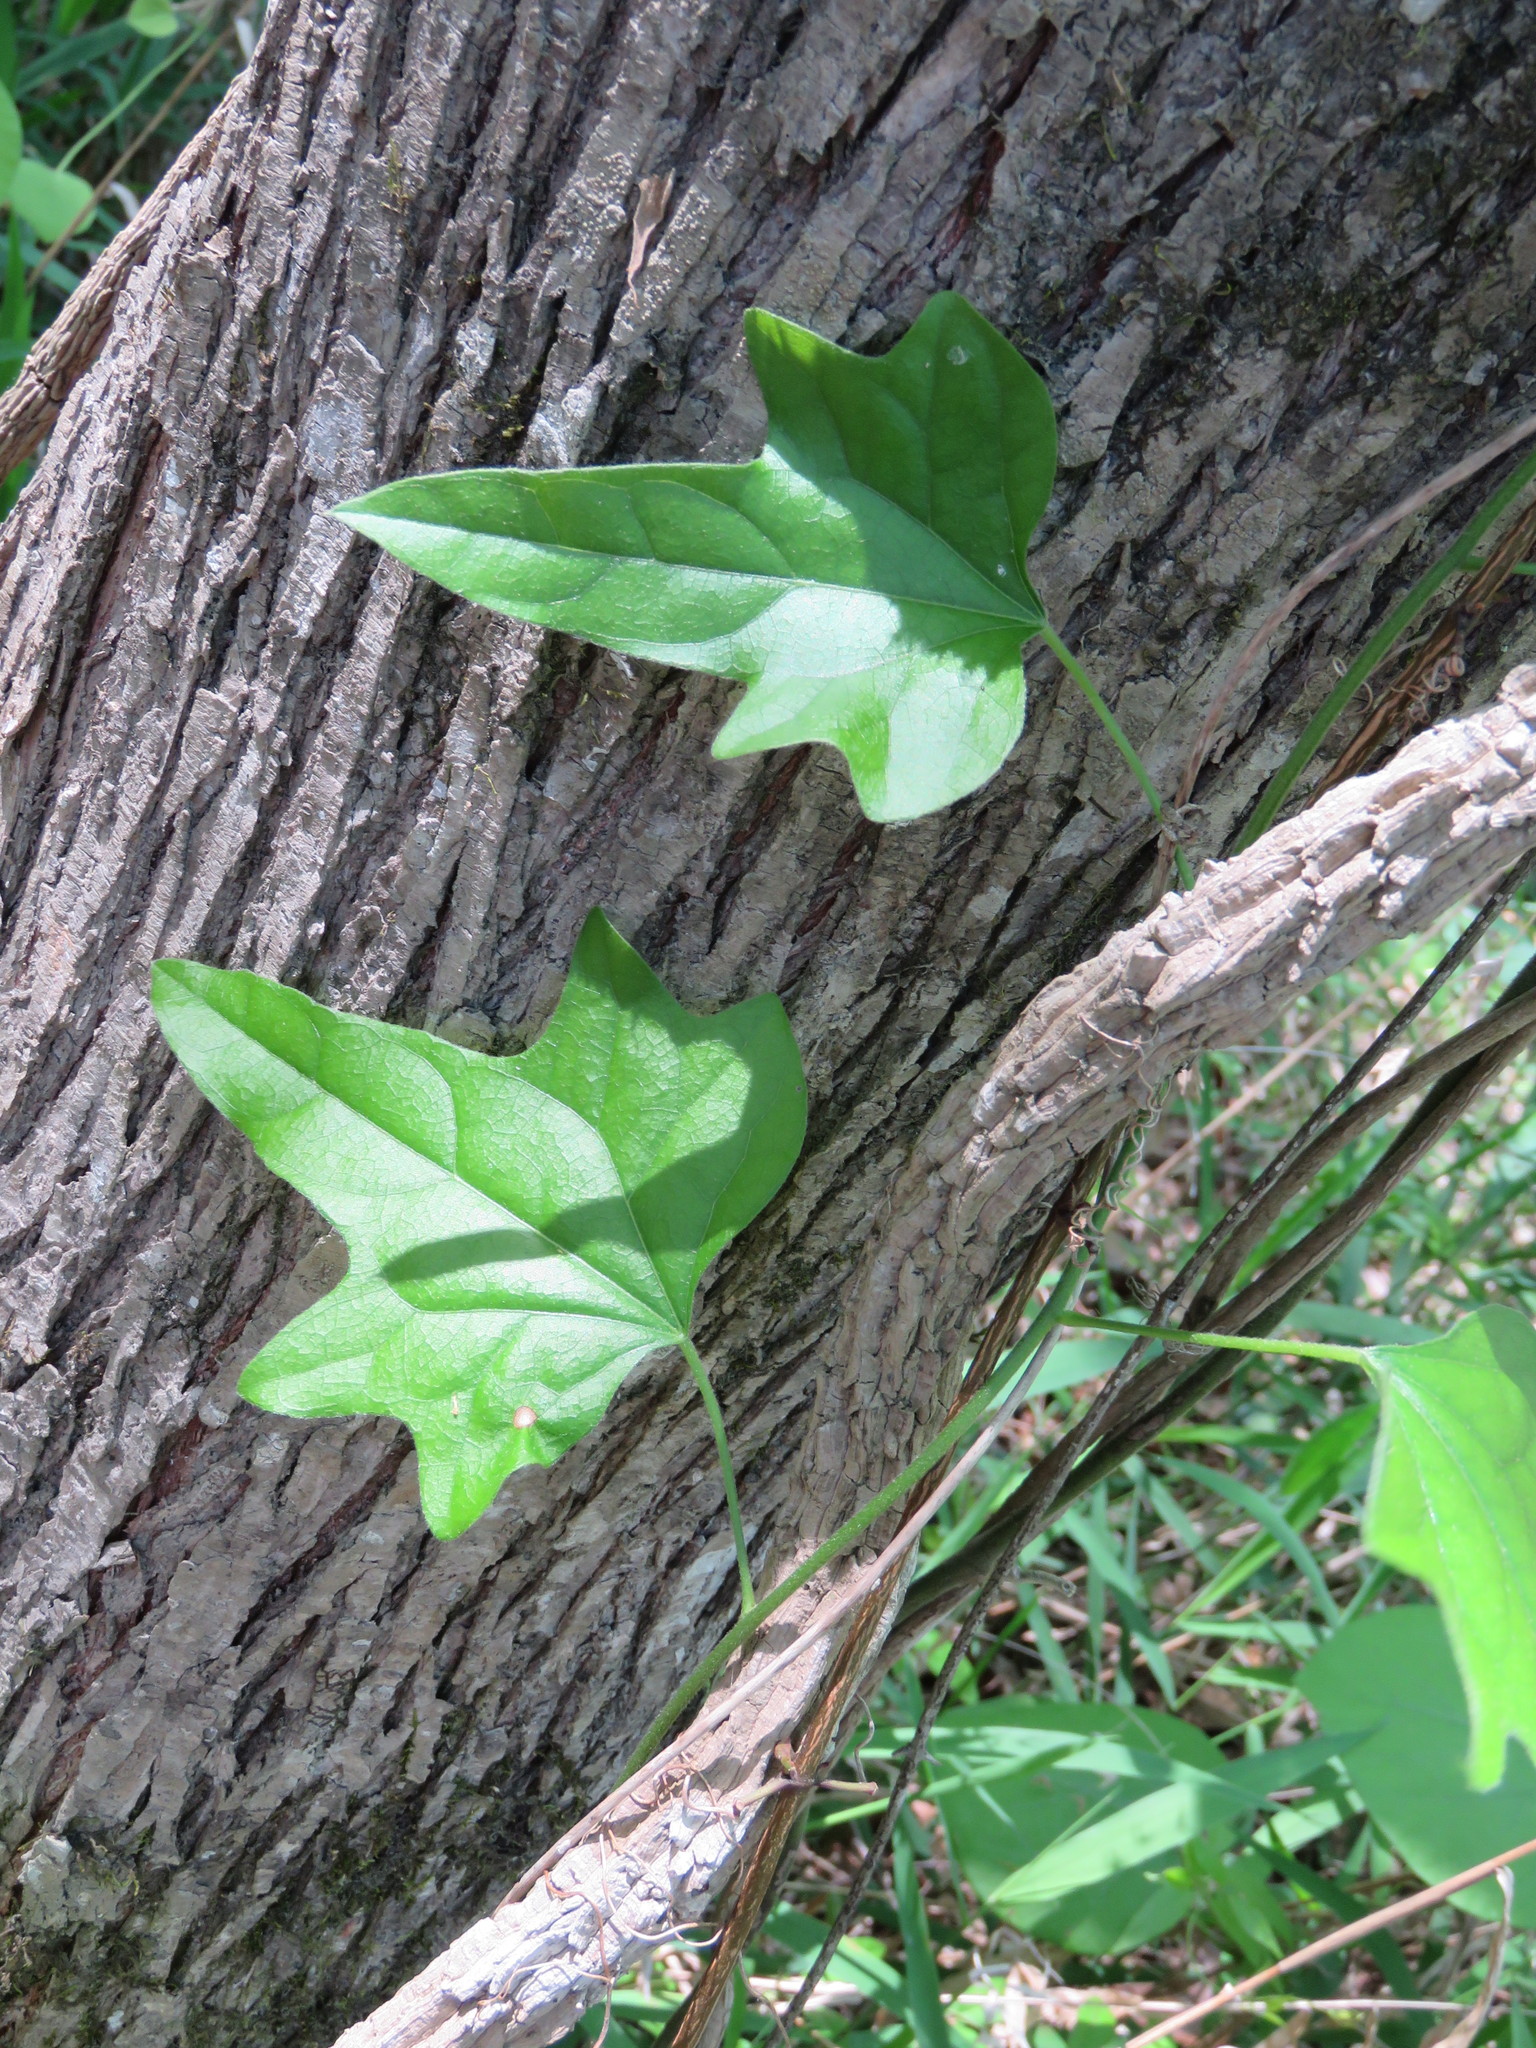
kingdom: Plantae
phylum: Tracheophyta
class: Magnoliopsida
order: Ranunculales
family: Menispermaceae
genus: Cocculus
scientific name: Cocculus carolinus
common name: Carolina moonseed
